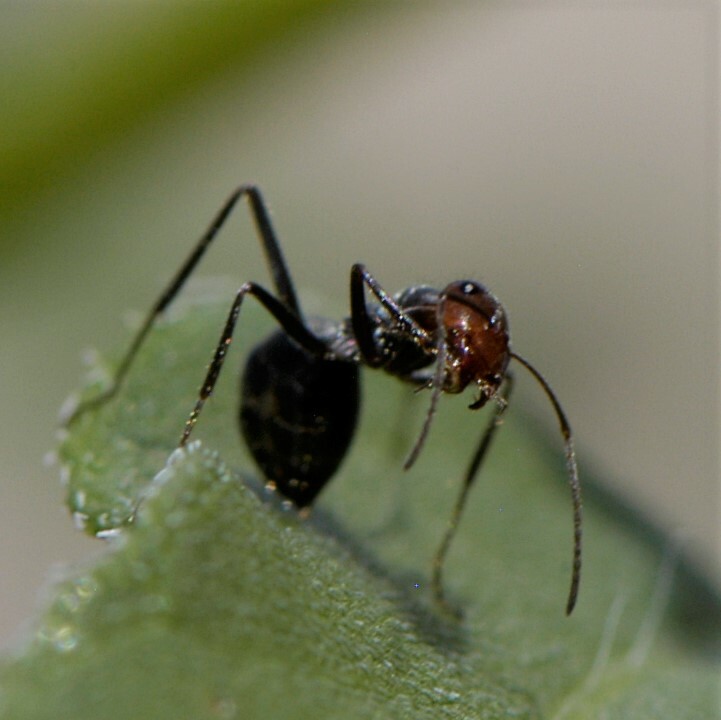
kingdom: Animalia
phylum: Arthropoda
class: Insecta
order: Hymenoptera
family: Formicidae
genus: Endiodioctes
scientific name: Endiodioctes
